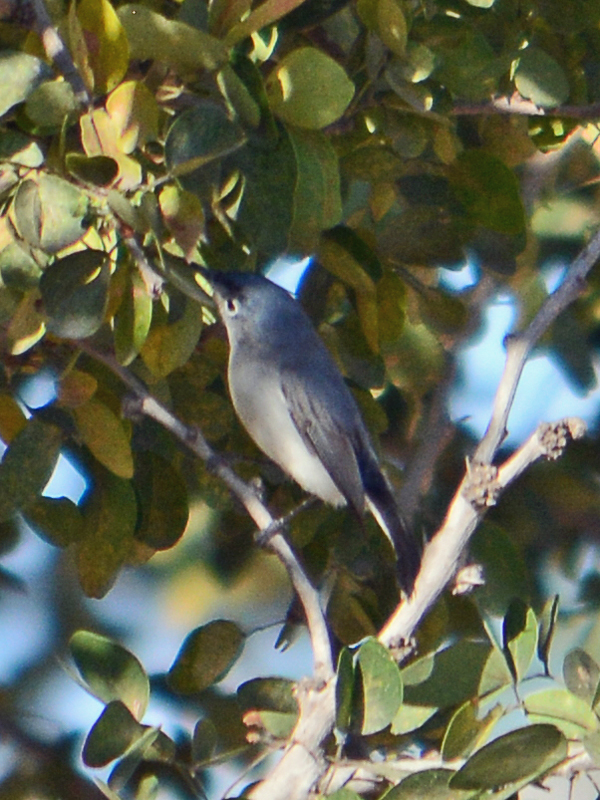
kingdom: Animalia
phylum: Chordata
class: Aves
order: Passeriformes
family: Polioptilidae
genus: Polioptila
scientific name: Polioptila caerulea
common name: Blue-gray gnatcatcher
